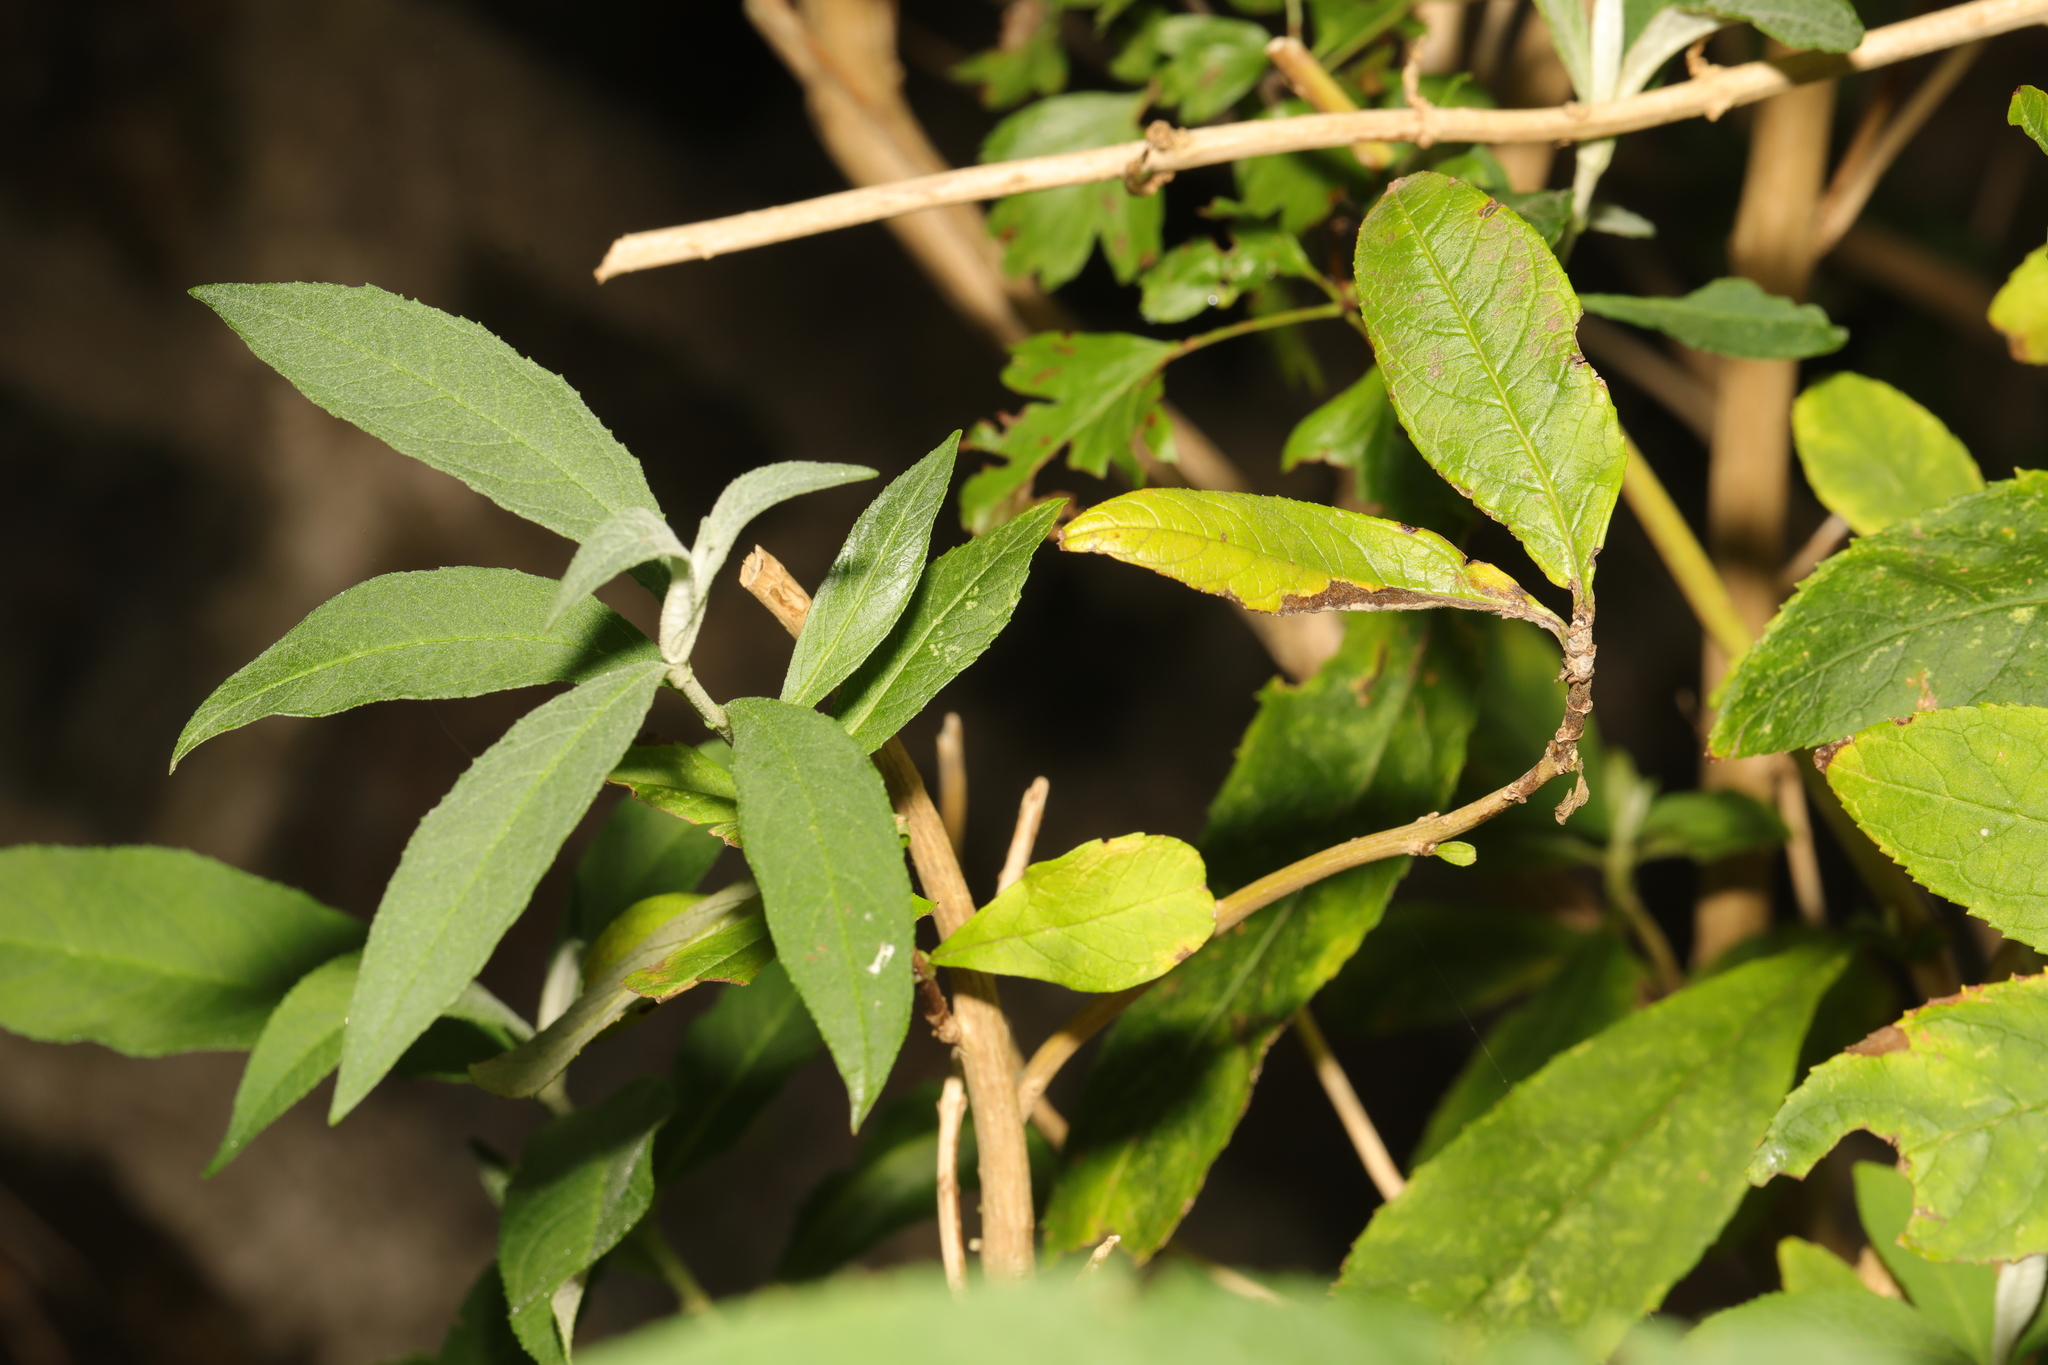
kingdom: Plantae
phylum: Tracheophyta
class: Magnoliopsida
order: Lamiales
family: Scrophulariaceae
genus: Buddleja
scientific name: Buddleja davidii
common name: Butterfly-bush
